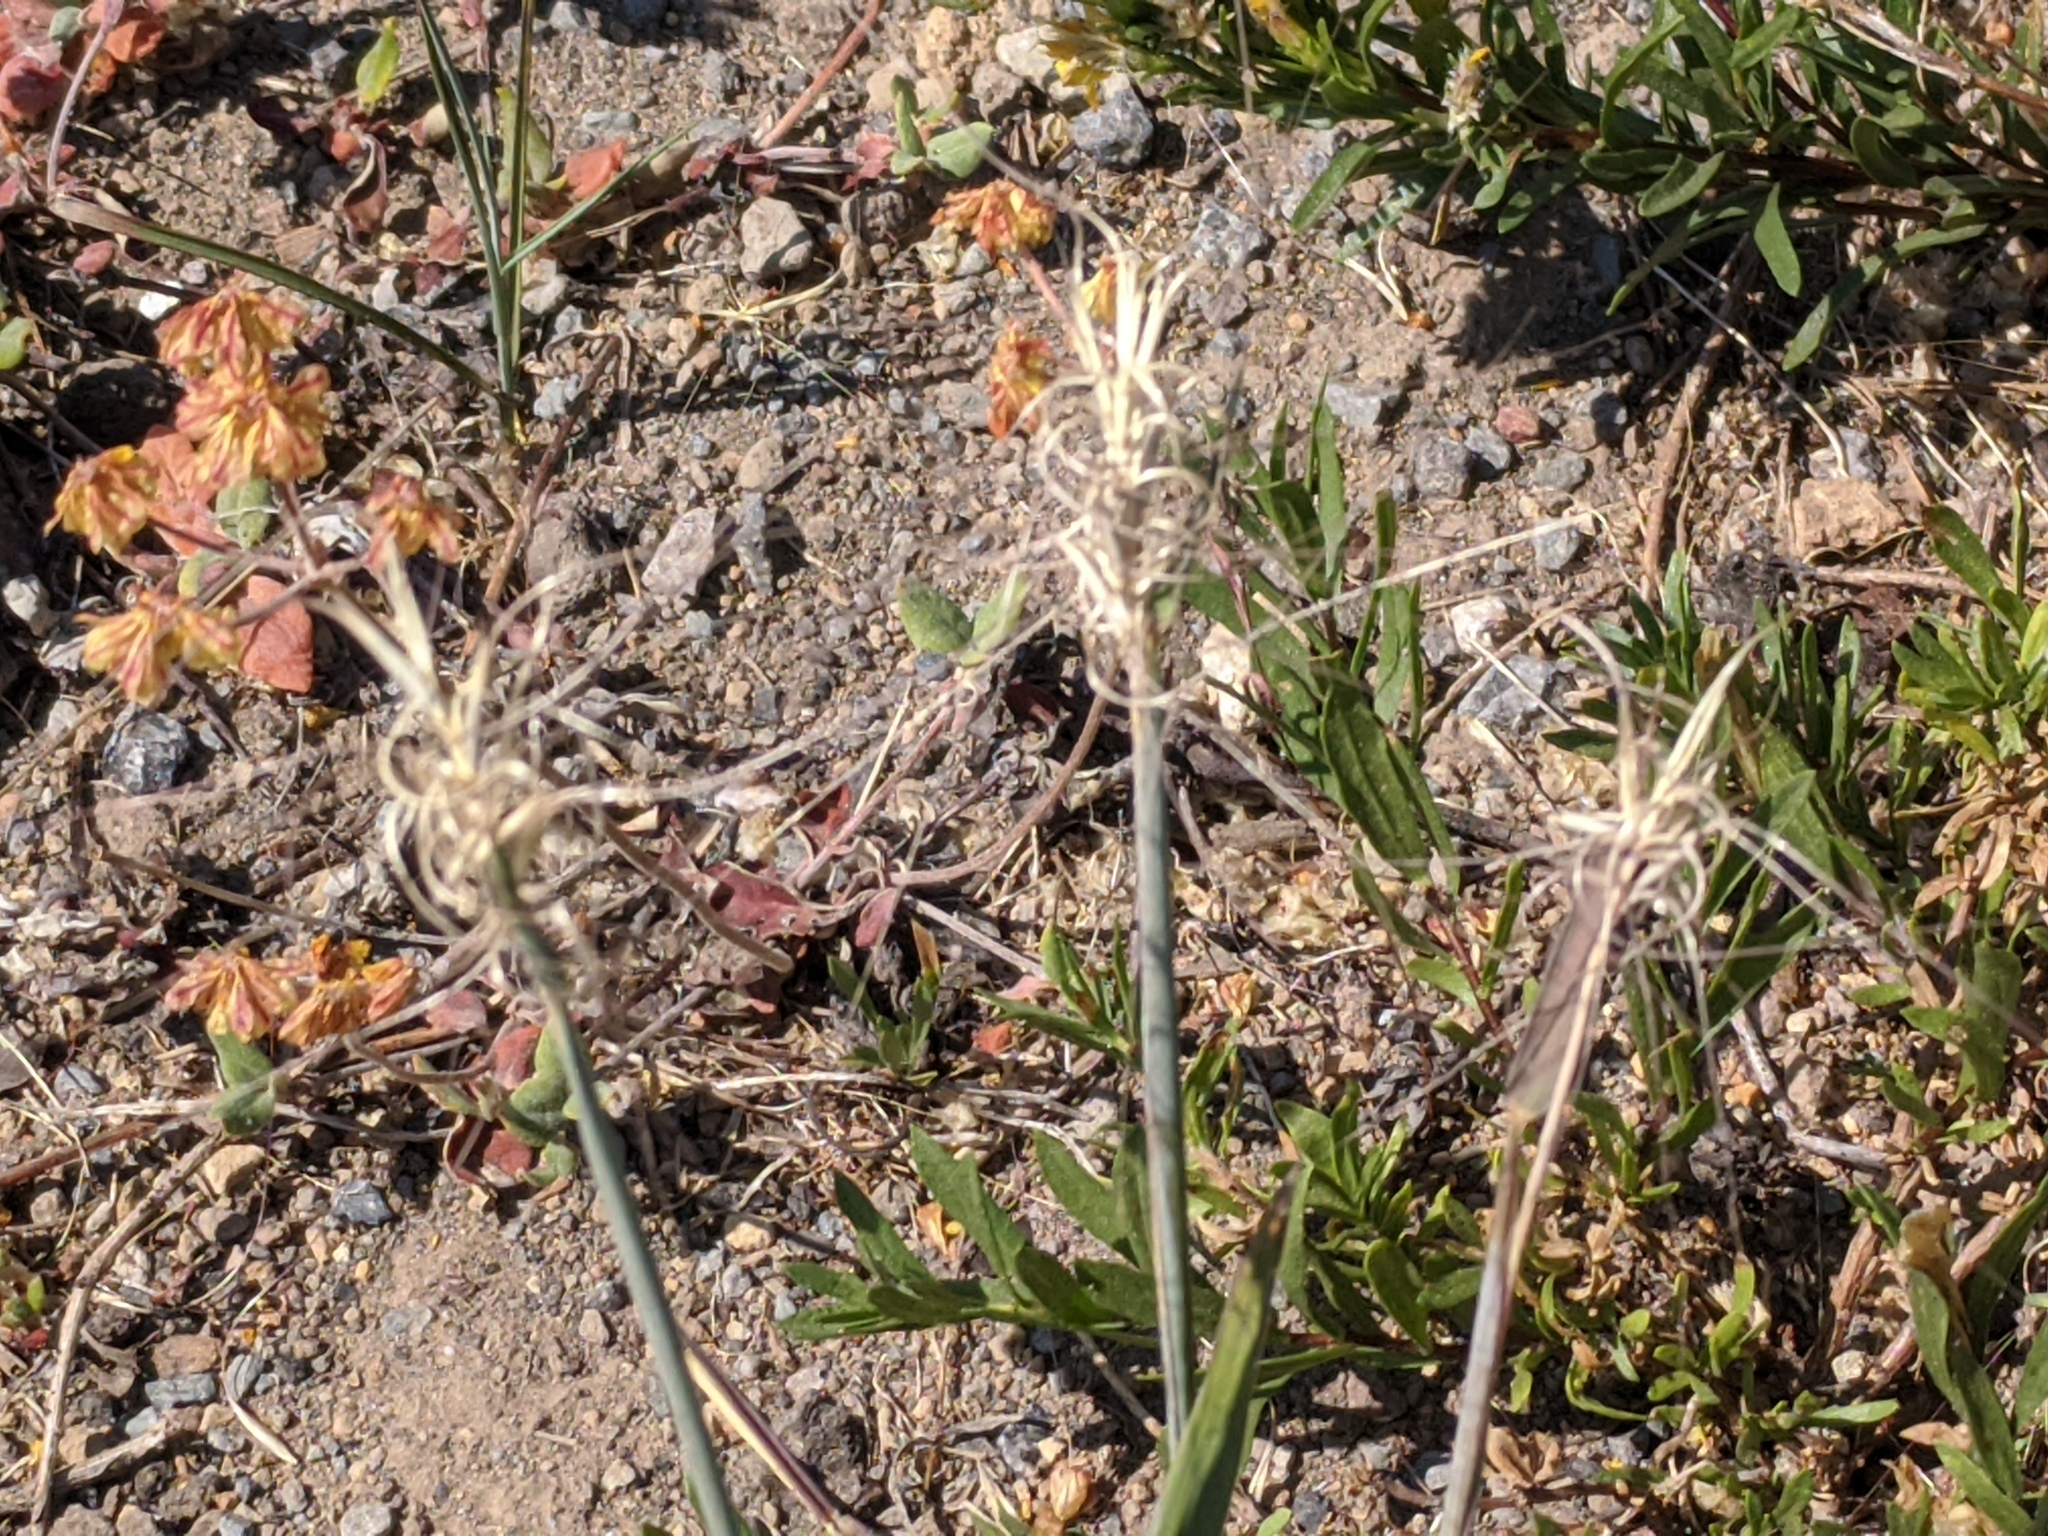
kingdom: Plantae
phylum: Tracheophyta
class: Liliopsida
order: Poales
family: Poaceae
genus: Elymus
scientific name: Elymus elymoides
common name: Bottlebrush squirreltail
